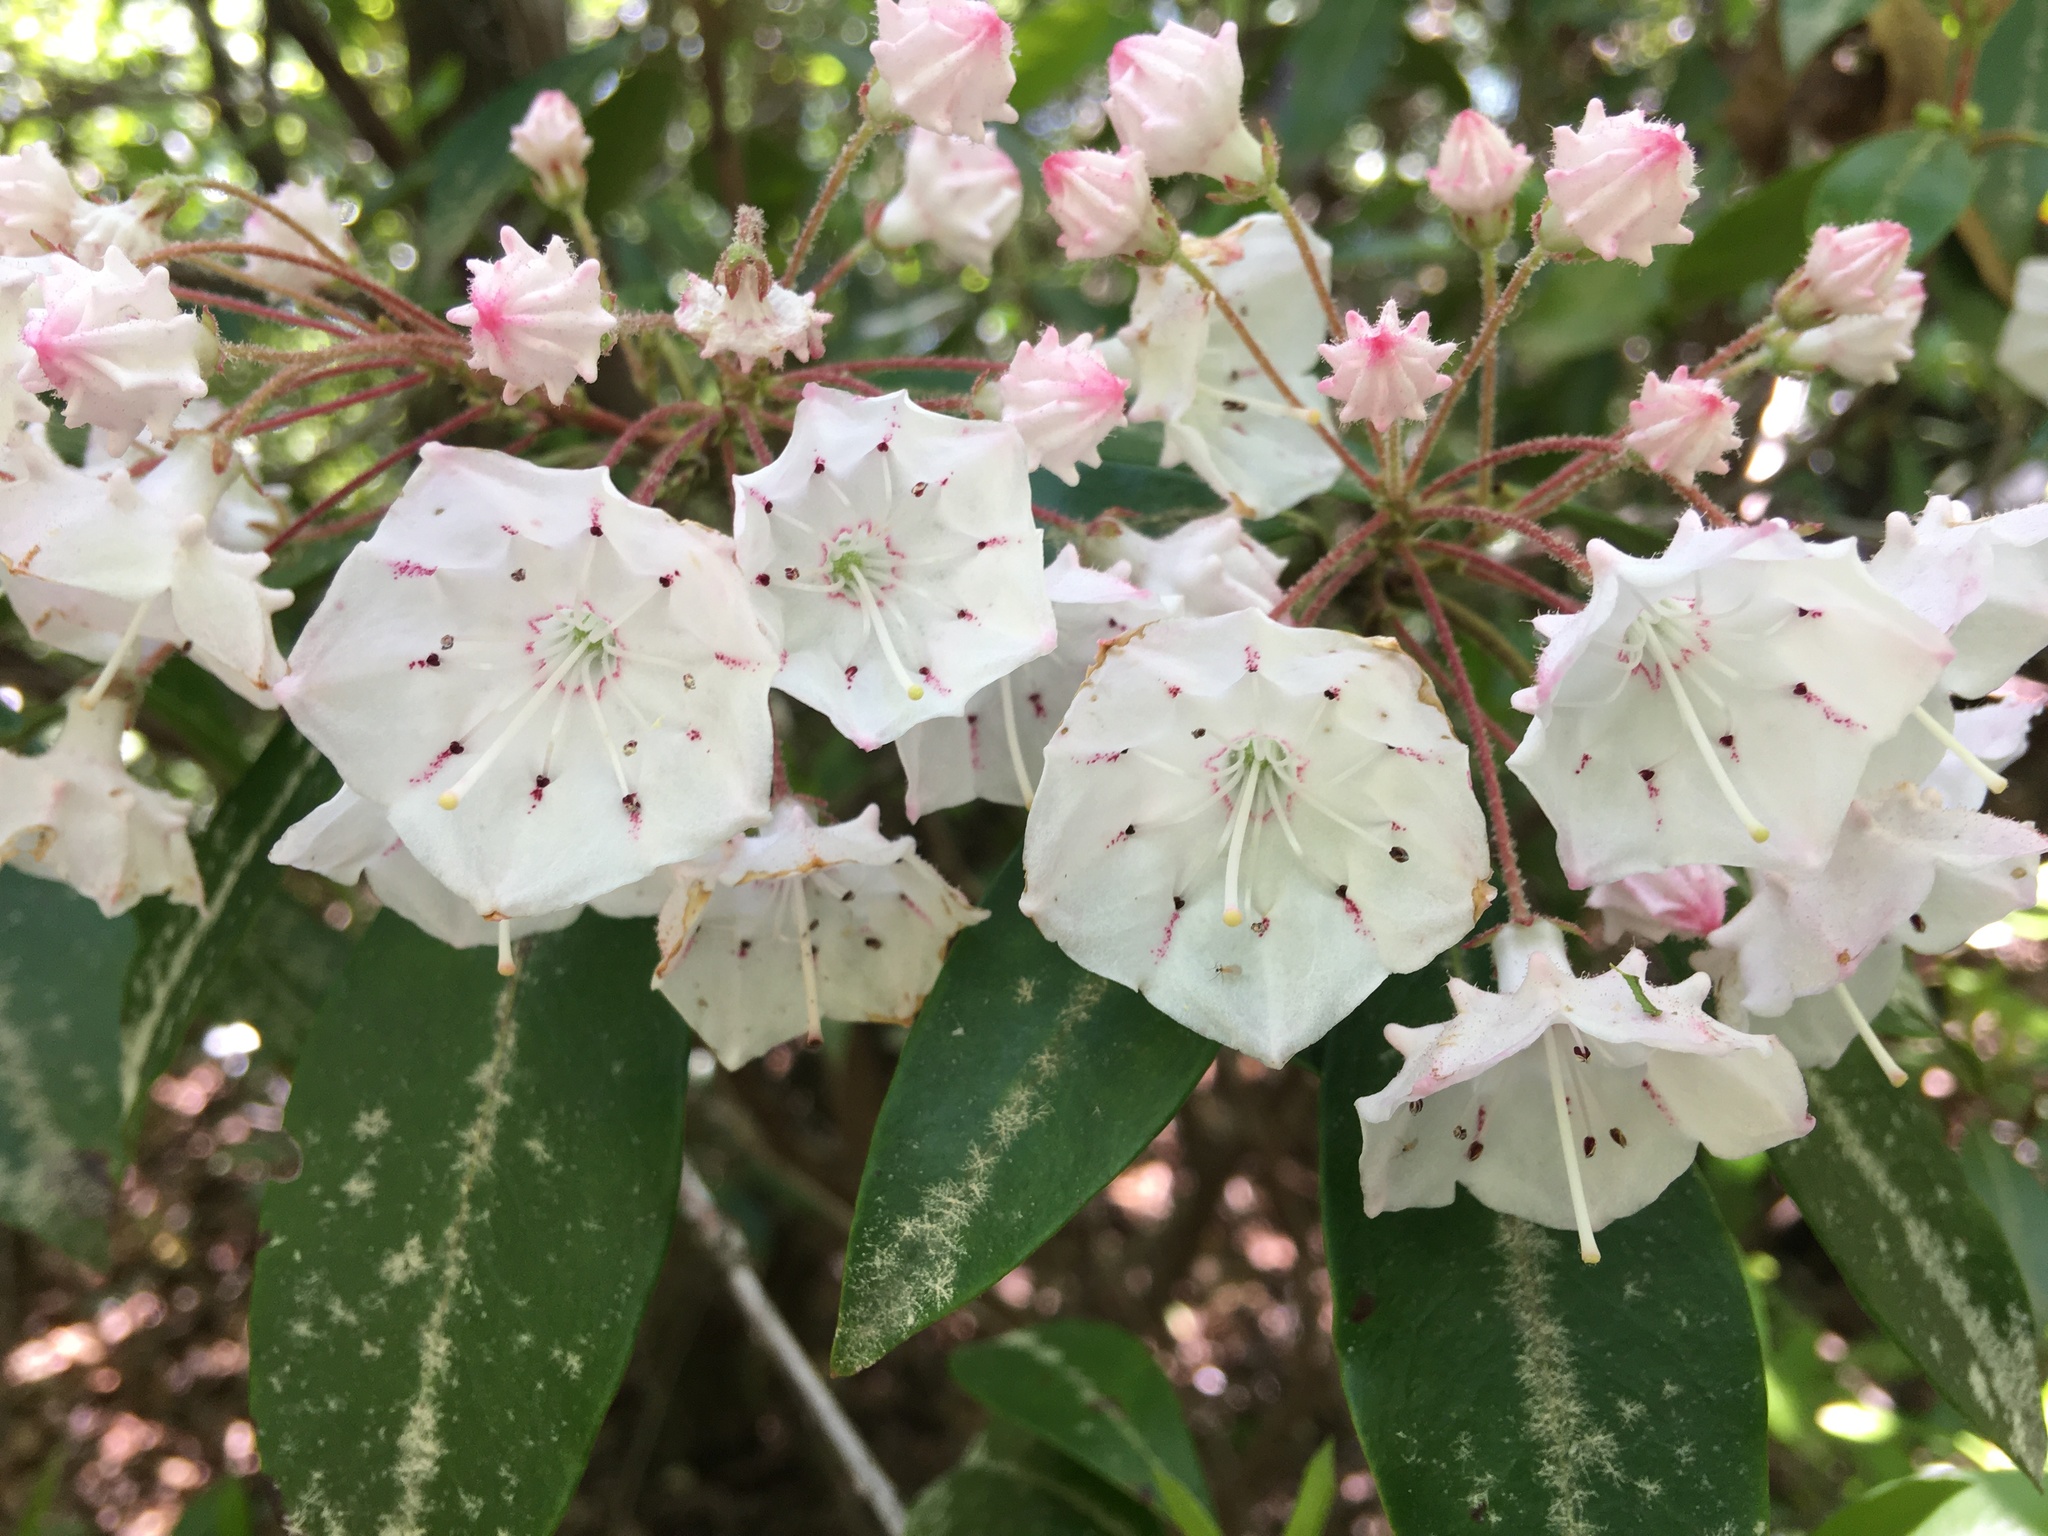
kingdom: Plantae
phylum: Tracheophyta
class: Magnoliopsida
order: Ericales
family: Ericaceae
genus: Kalmia
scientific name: Kalmia latifolia
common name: Mountain-laurel
